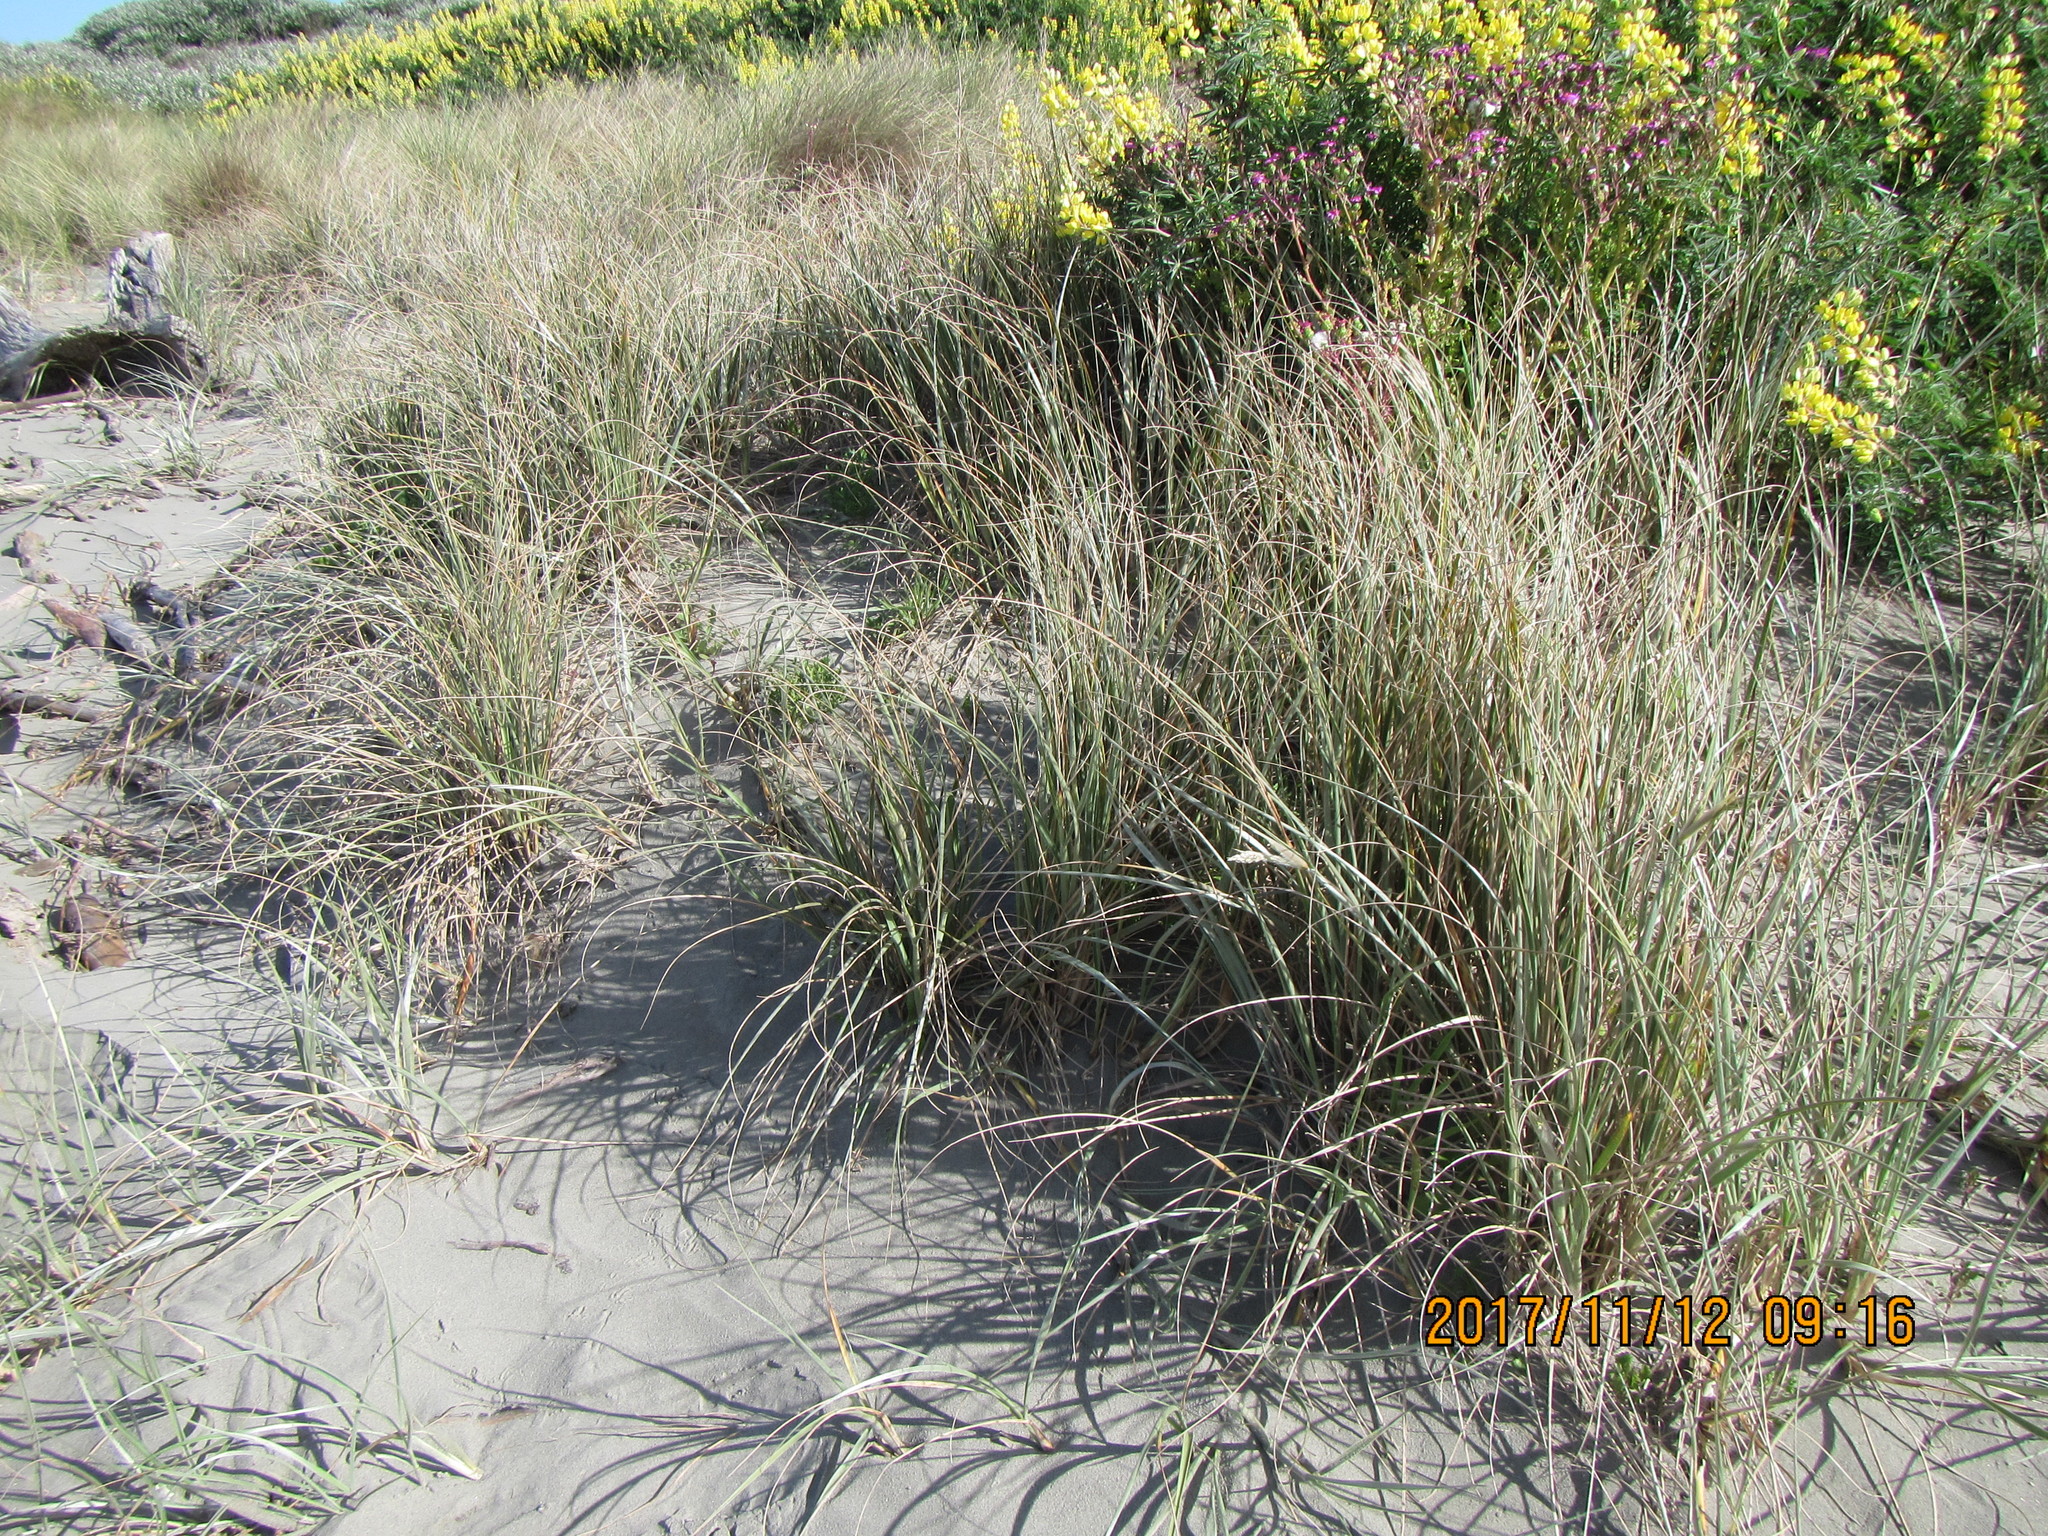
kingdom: Plantae
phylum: Tracheophyta
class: Liliopsida
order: Poales
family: Poaceae
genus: Spinifex
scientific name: Spinifex sericeus
